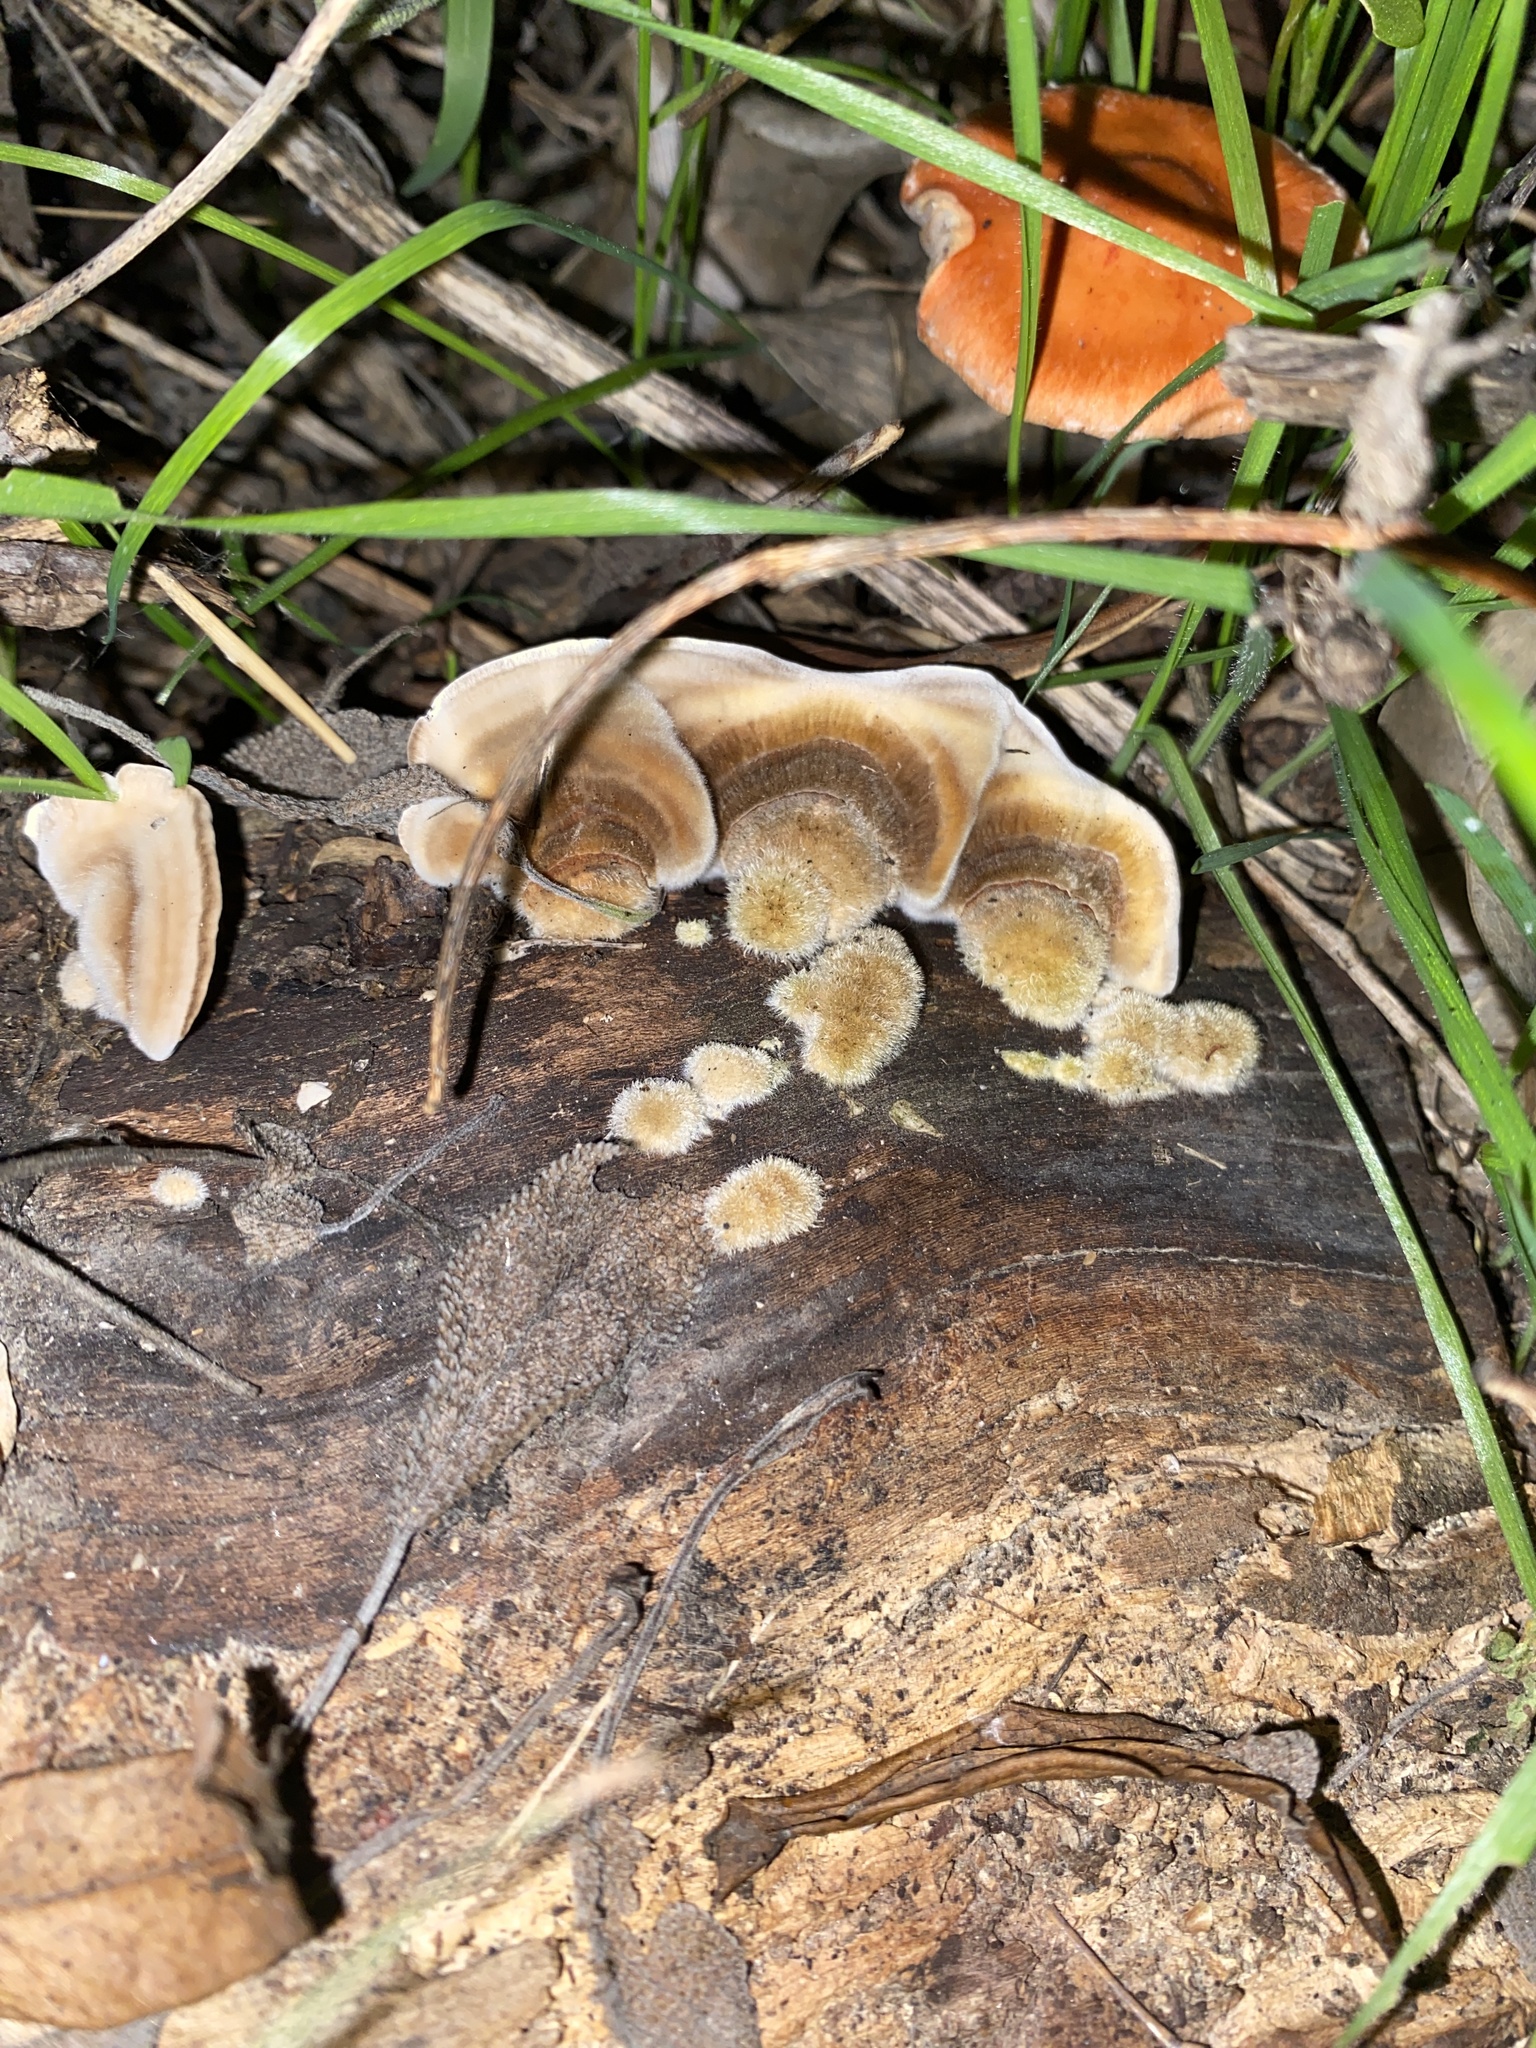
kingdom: Fungi
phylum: Basidiomycota
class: Agaricomycetes
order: Polyporales
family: Polyporaceae
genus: Trametes
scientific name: Trametes versicolor
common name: Turkeytail
